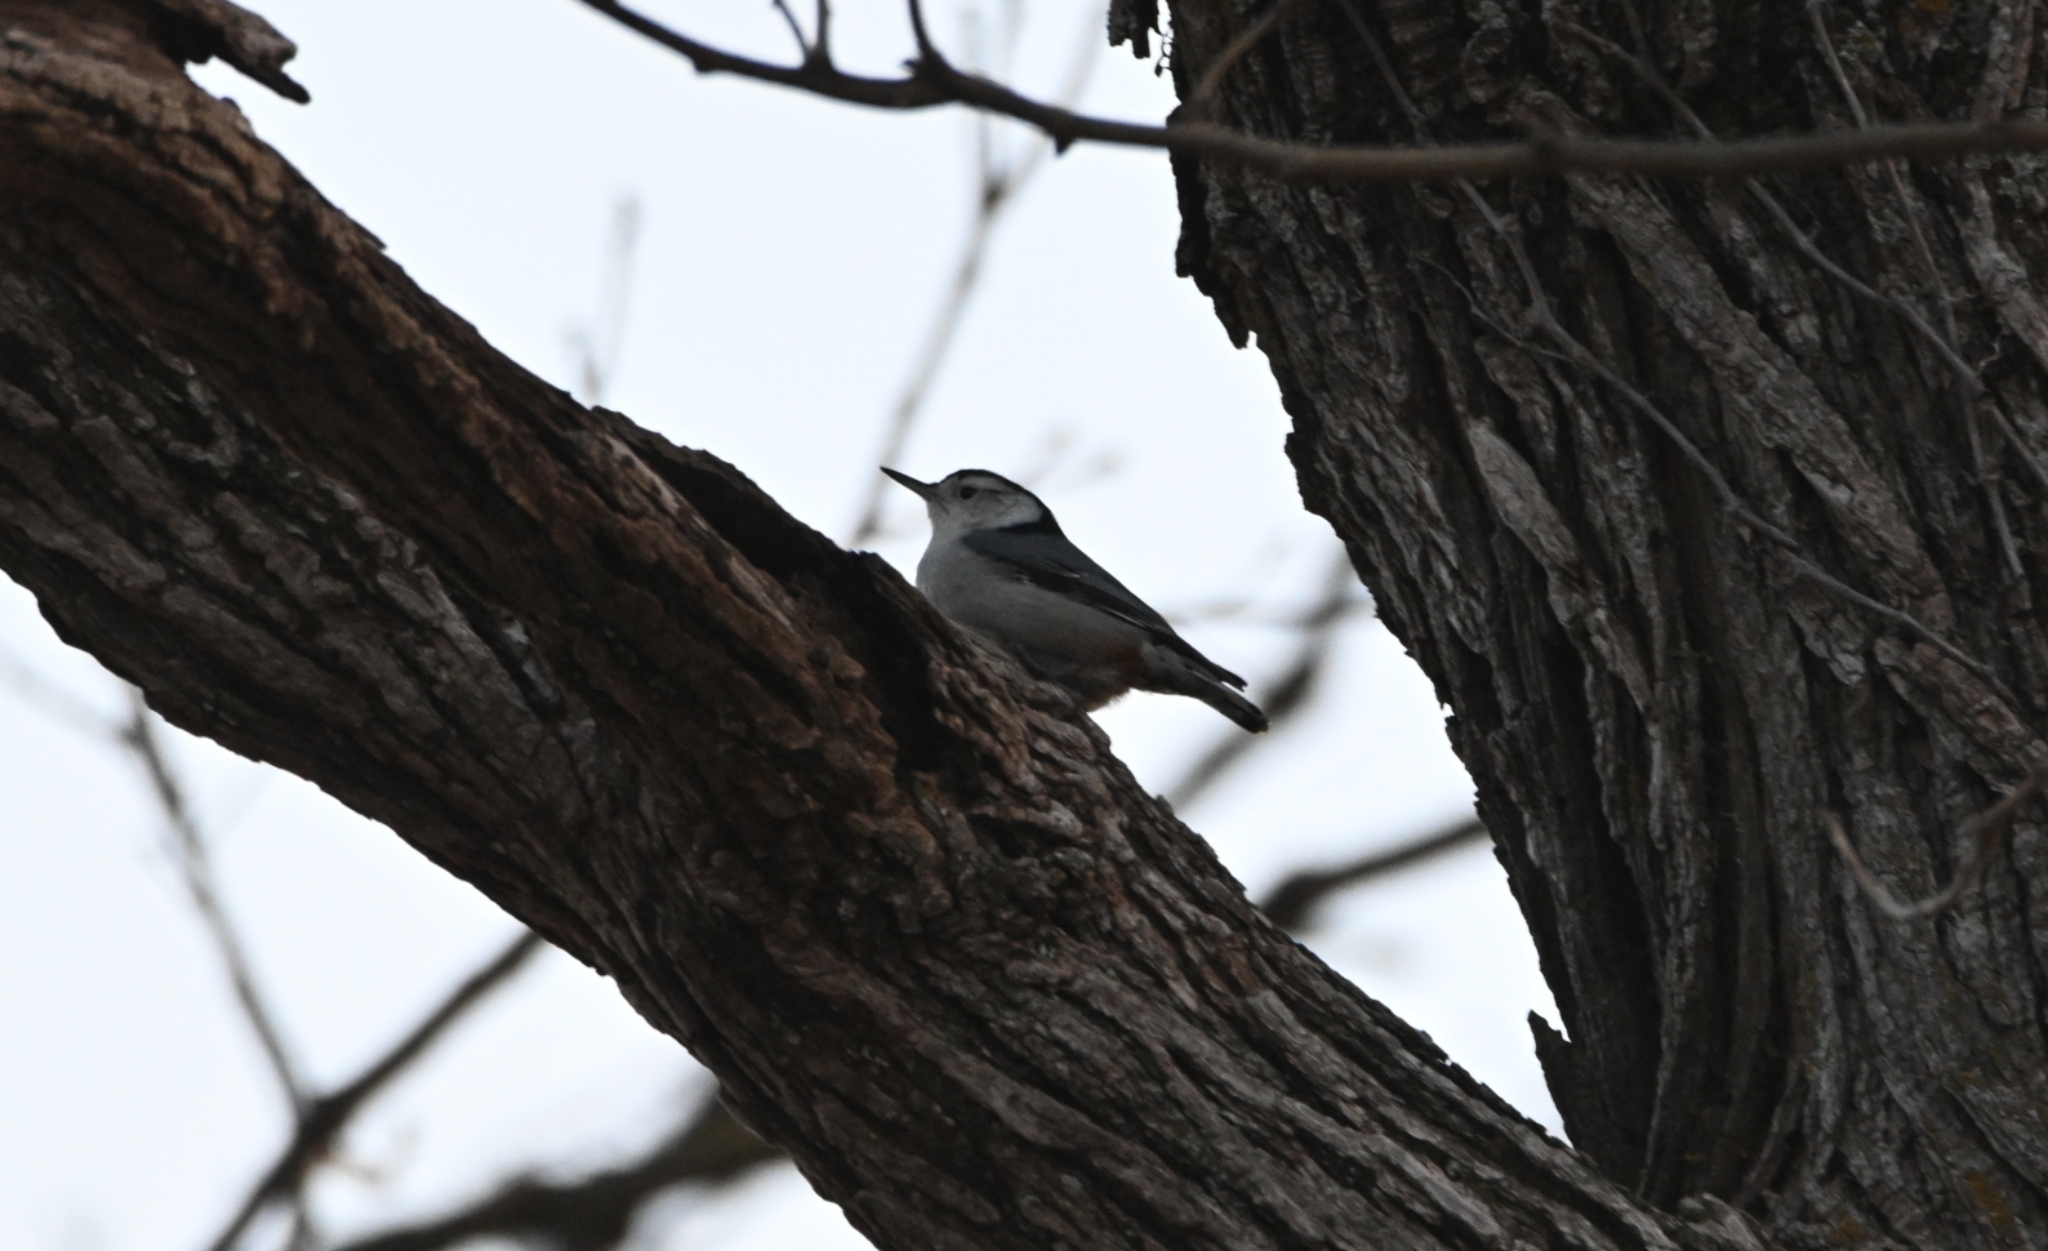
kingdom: Animalia
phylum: Chordata
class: Aves
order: Passeriformes
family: Sittidae
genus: Sitta
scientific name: Sitta carolinensis
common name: White-breasted nuthatch
